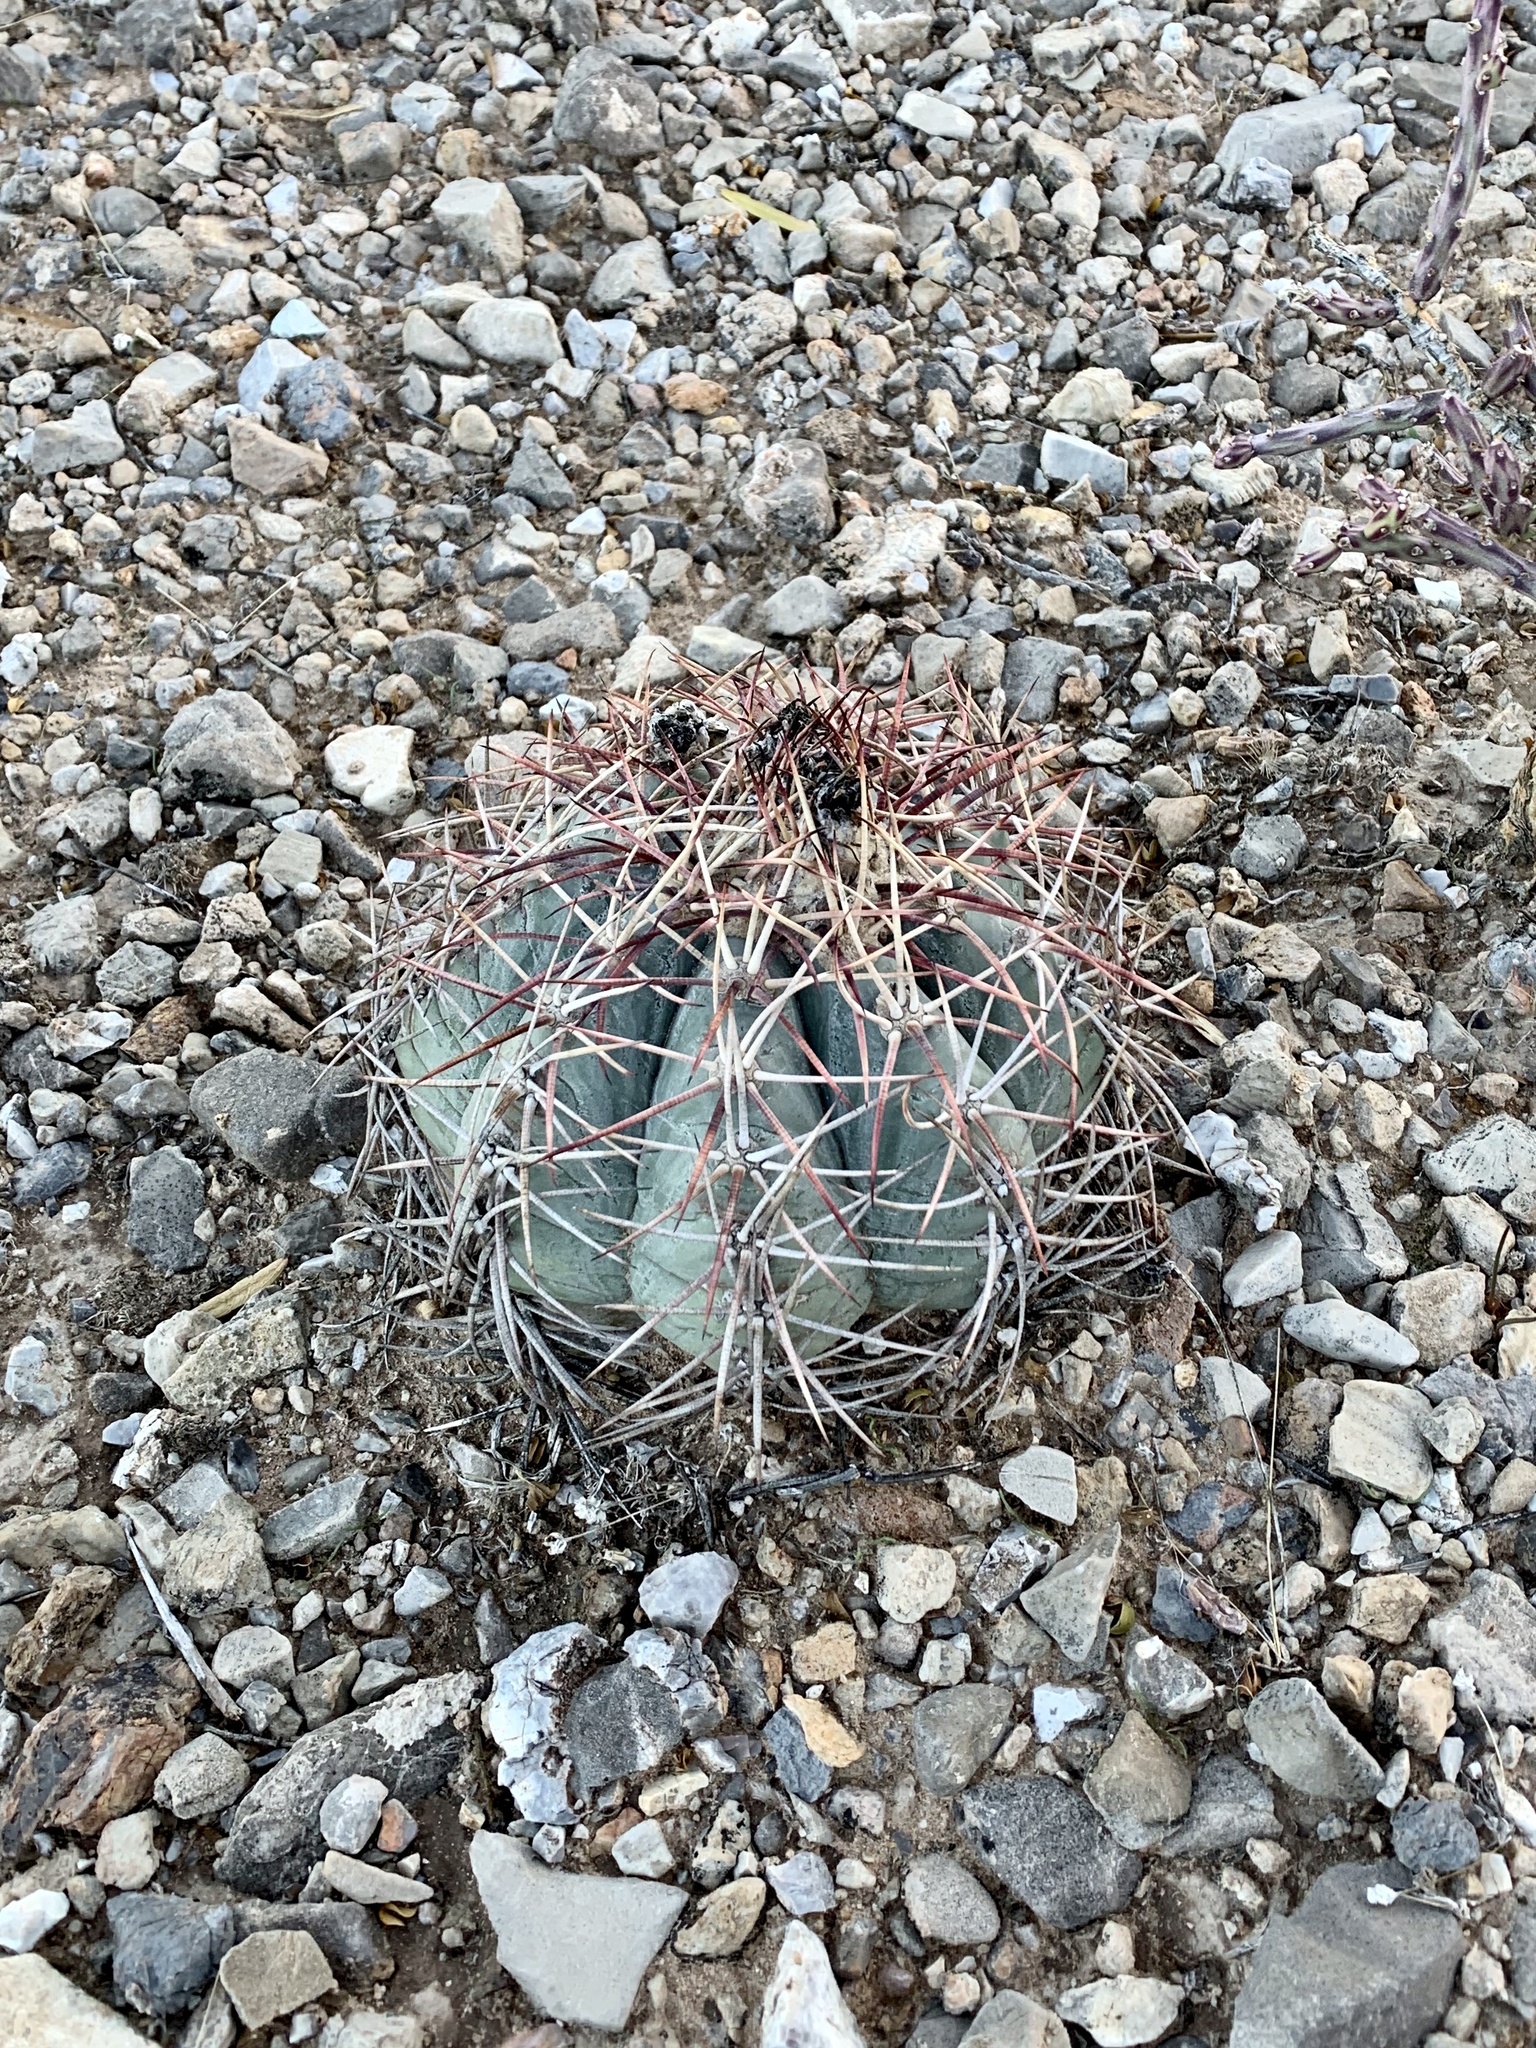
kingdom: Plantae
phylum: Tracheophyta
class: Magnoliopsida
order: Caryophyllales
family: Cactaceae
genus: Echinocactus
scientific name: Echinocactus horizonthalonius
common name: Devilshead
